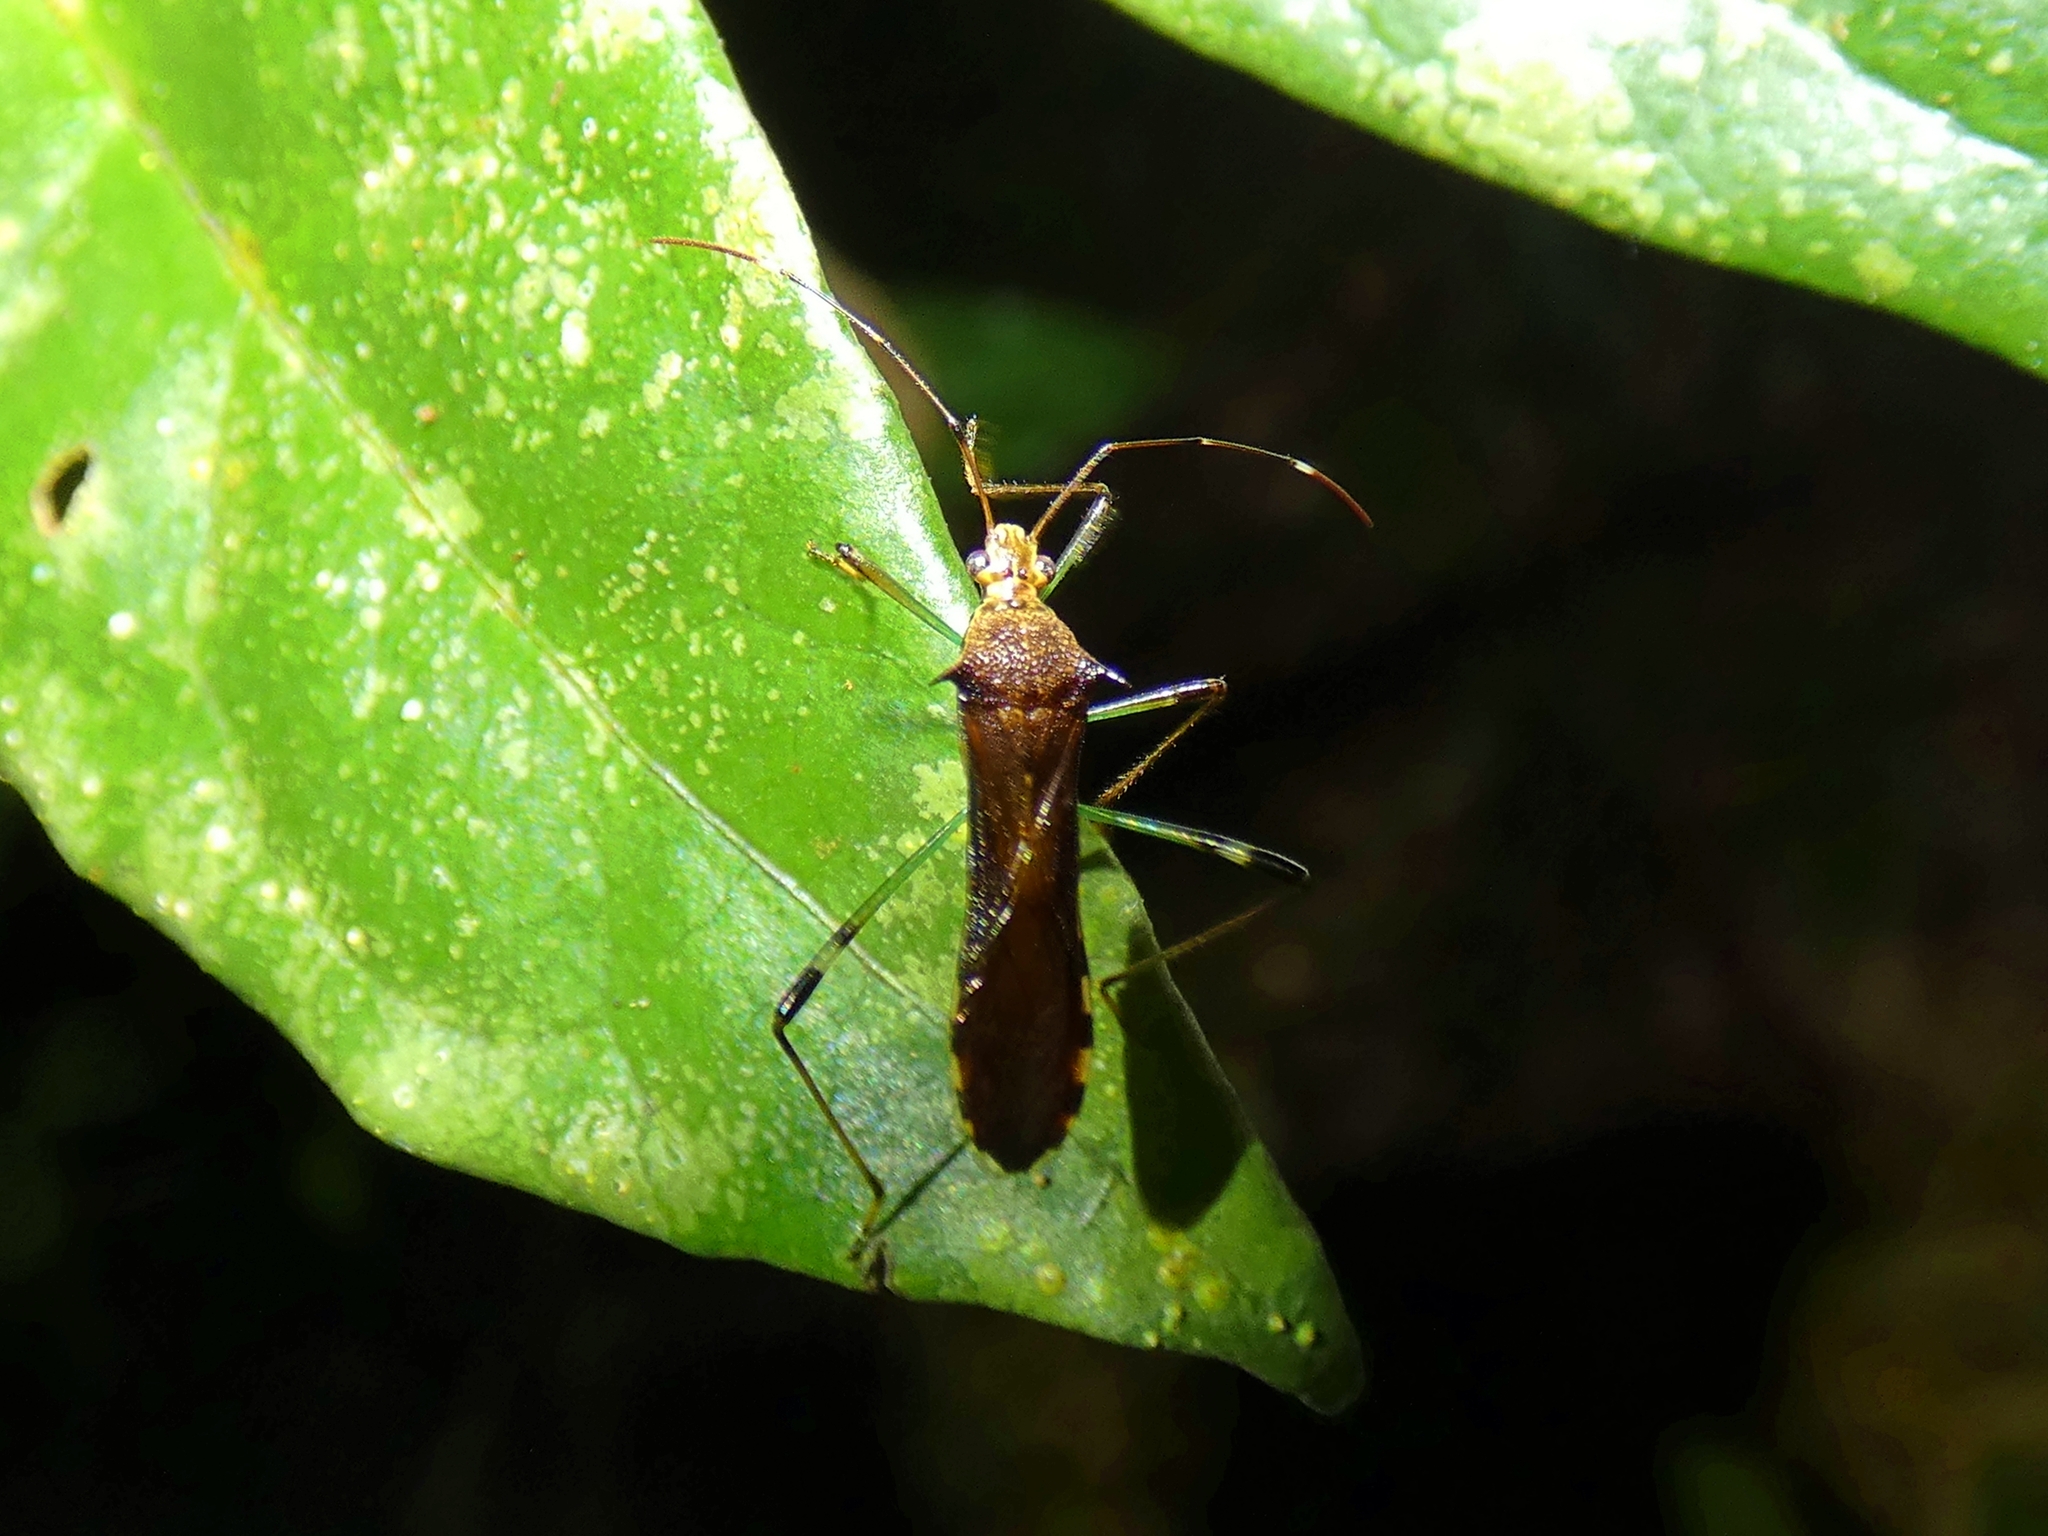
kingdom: Animalia
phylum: Arthropoda
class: Insecta
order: Hemiptera
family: Alydidae
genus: Noliphus
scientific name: Noliphus annulipes
